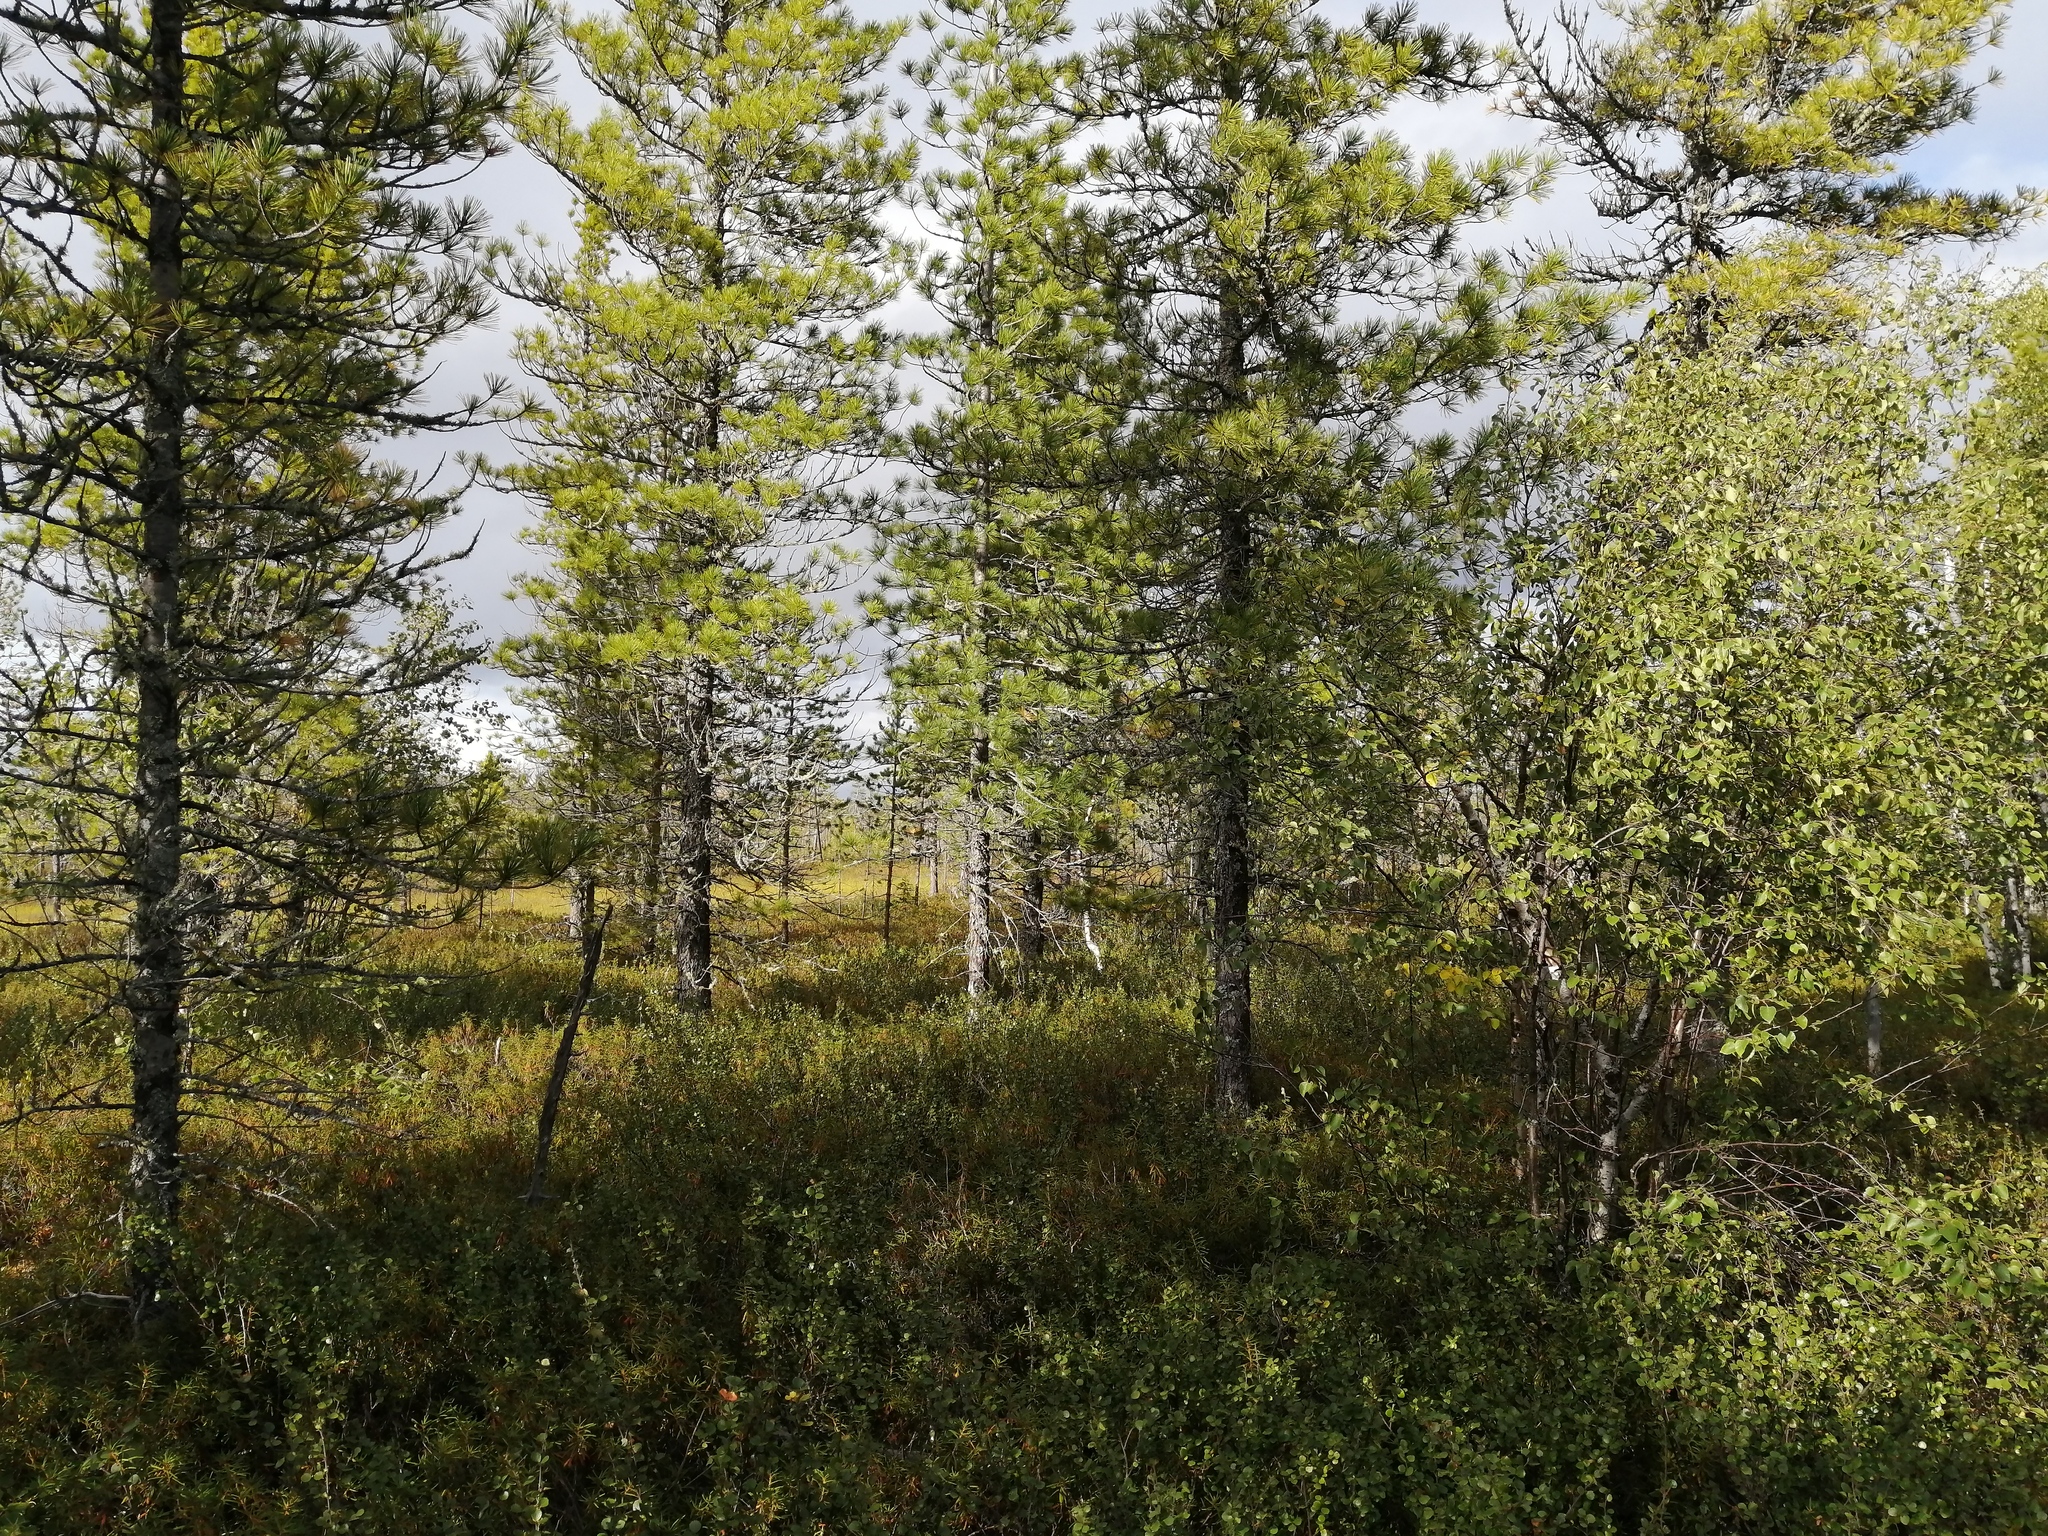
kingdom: Plantae
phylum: Tracheophyta
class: Pinopsida
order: Pinales
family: Pinaceae
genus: Pinus
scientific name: Pinus sibirica
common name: Siberian pine
